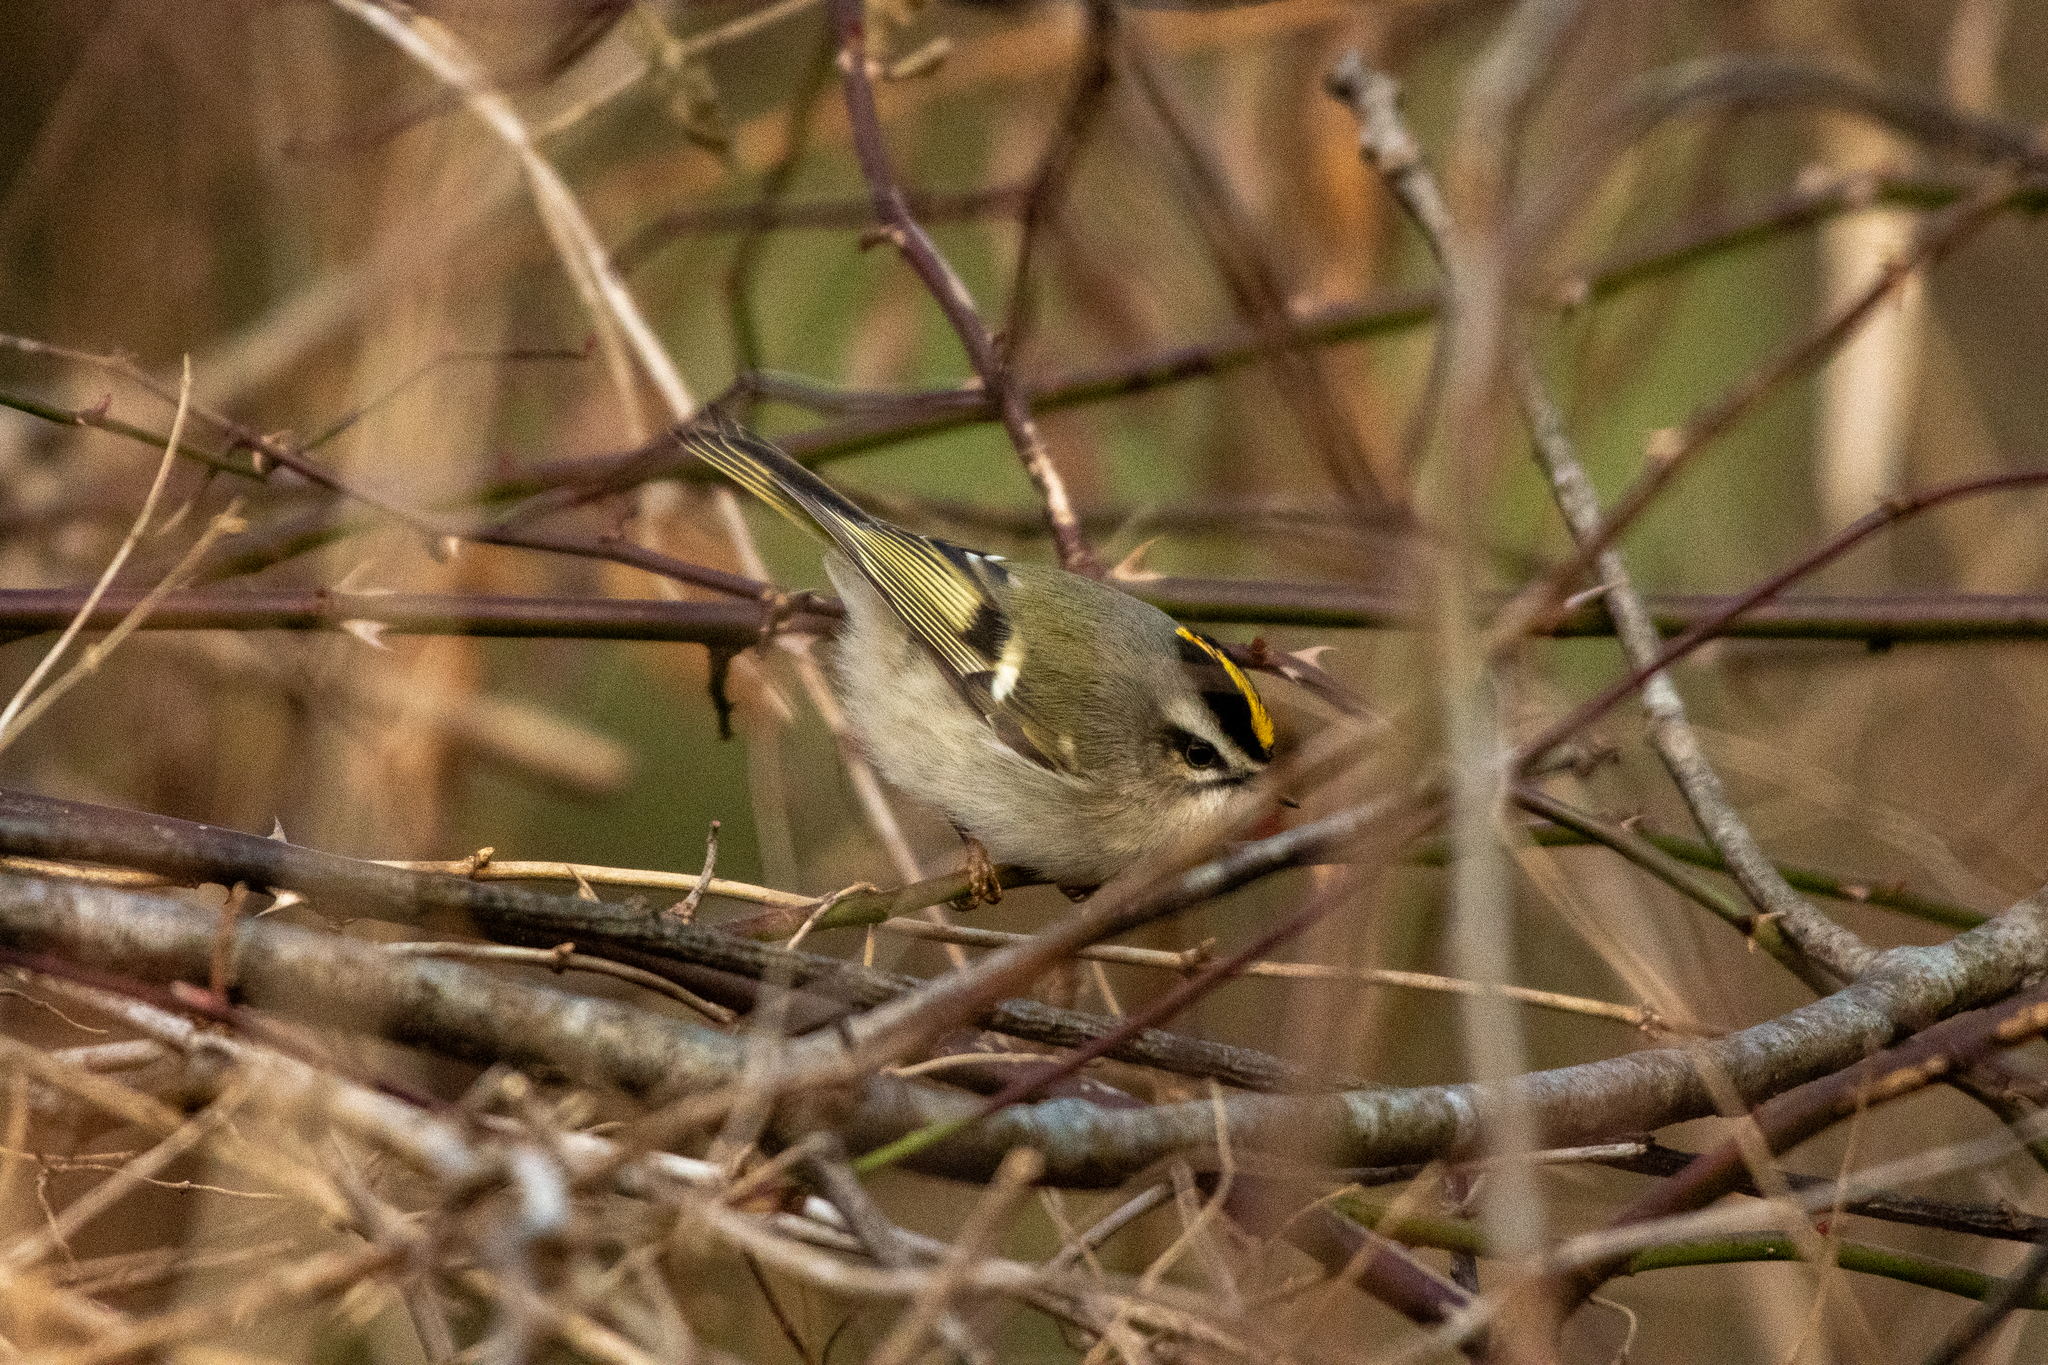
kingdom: Animalia
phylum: Chordata
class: Aves
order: Passeriformes
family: Regulidae
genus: Regulus
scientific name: Regulus satrapa
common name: Golden-crowned kinglet
